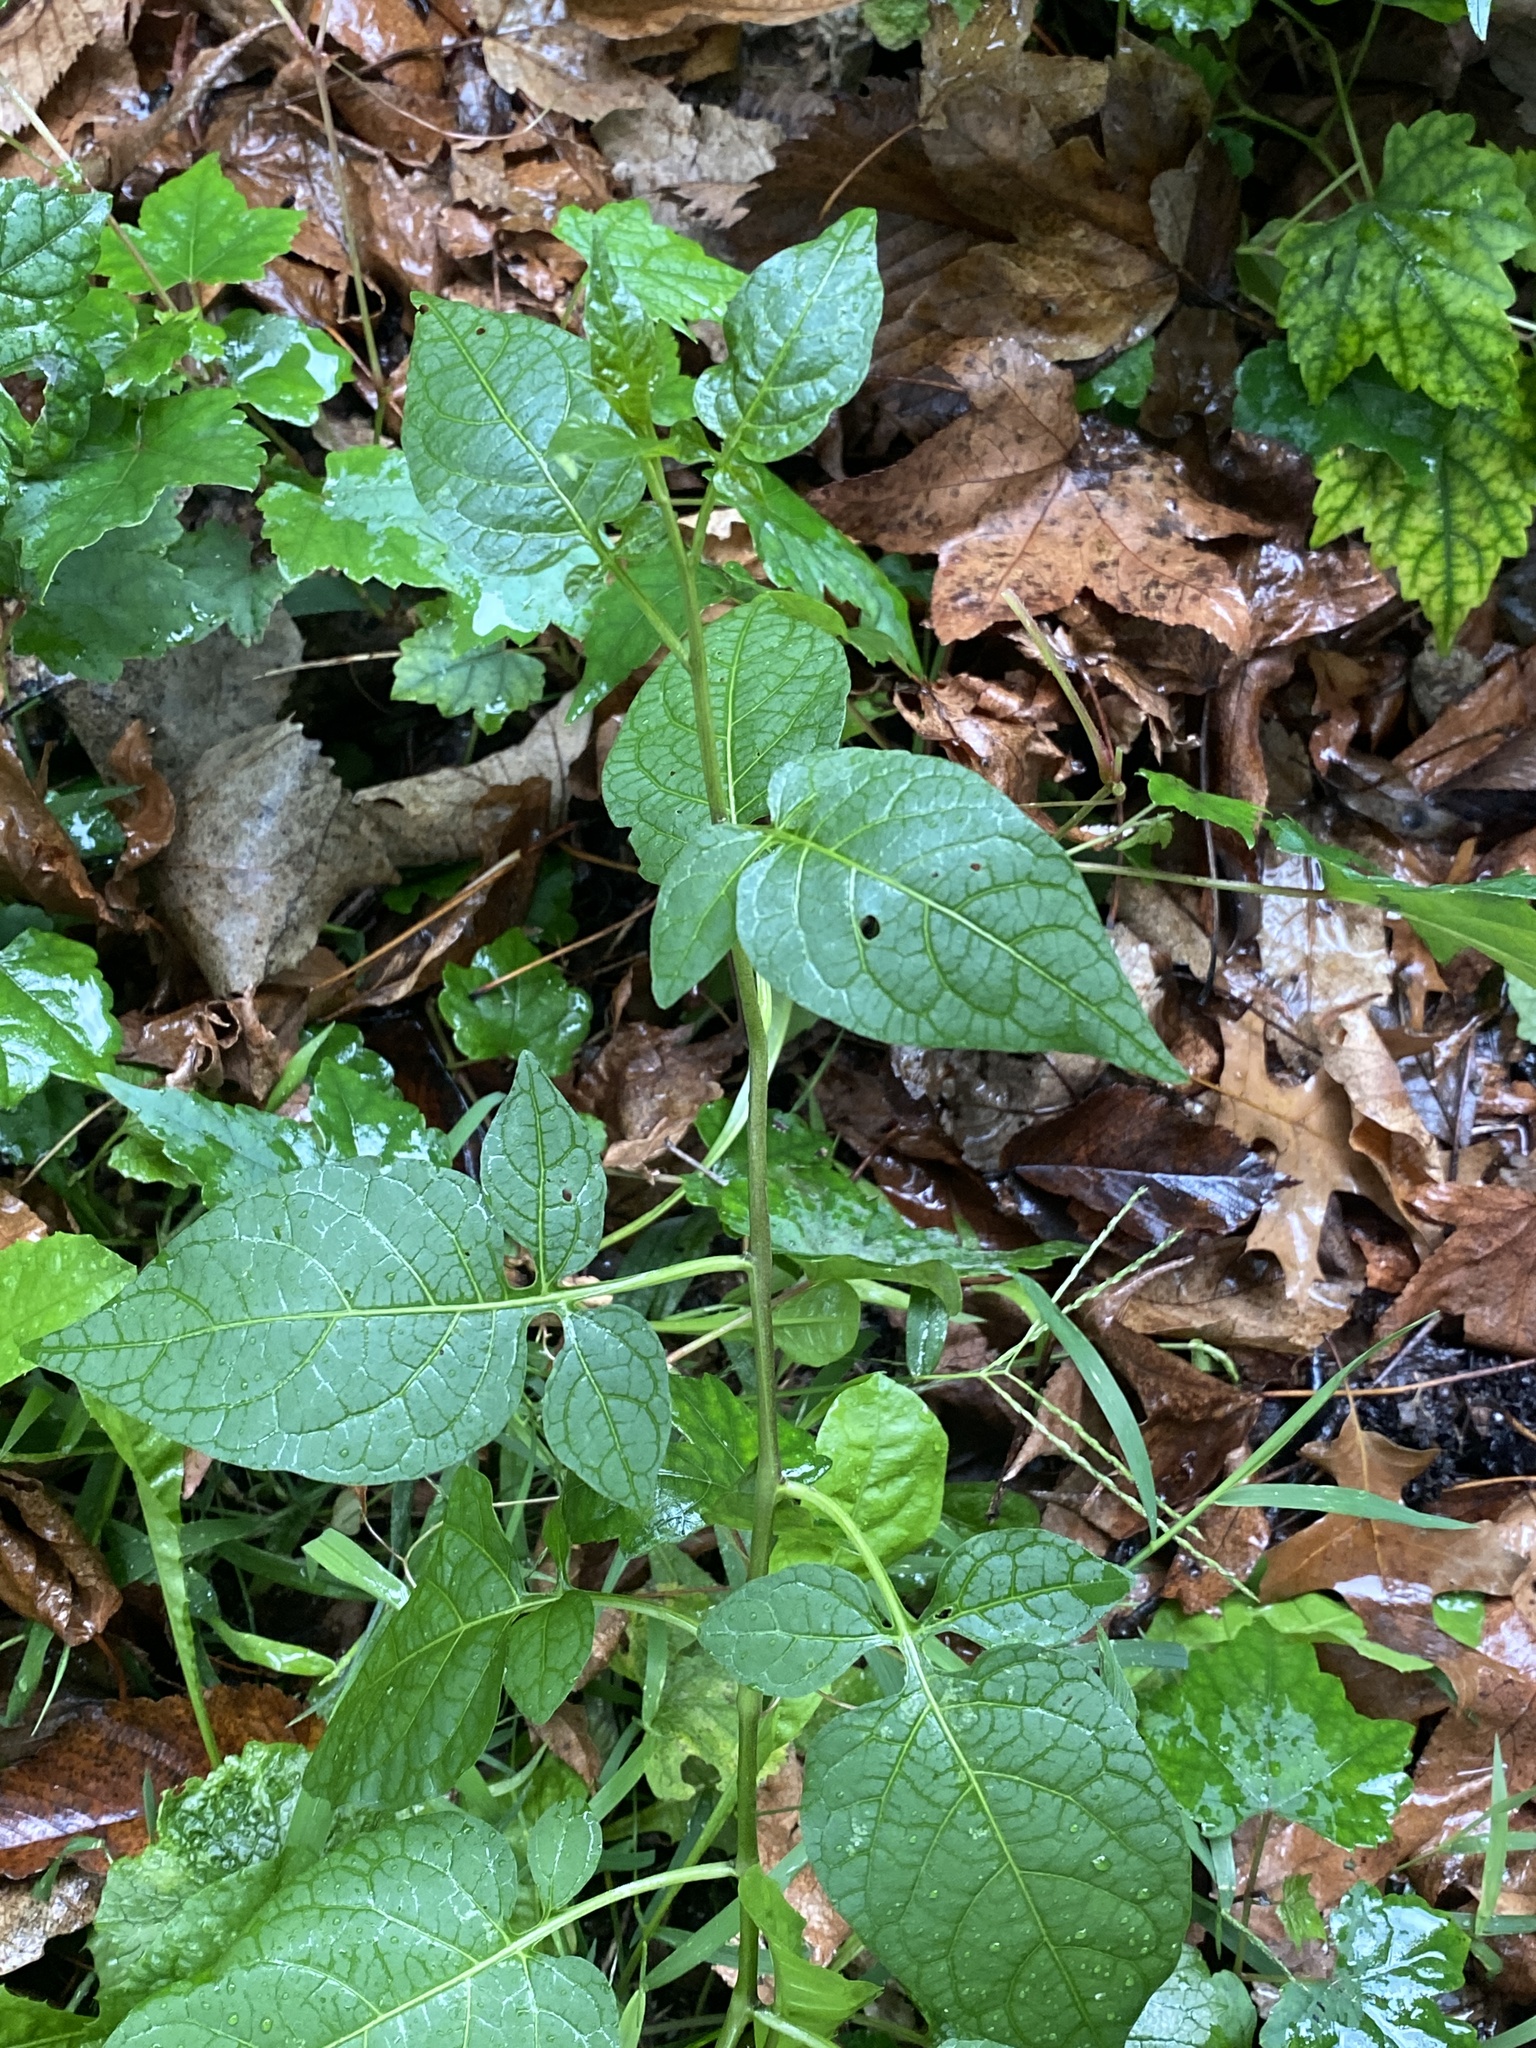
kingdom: Plantae
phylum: Tracheophyta
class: Magnoliopsida
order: Solanales
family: Solanaceae
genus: Solanum
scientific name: Solanum dulcamara
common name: Climbing nightshade
